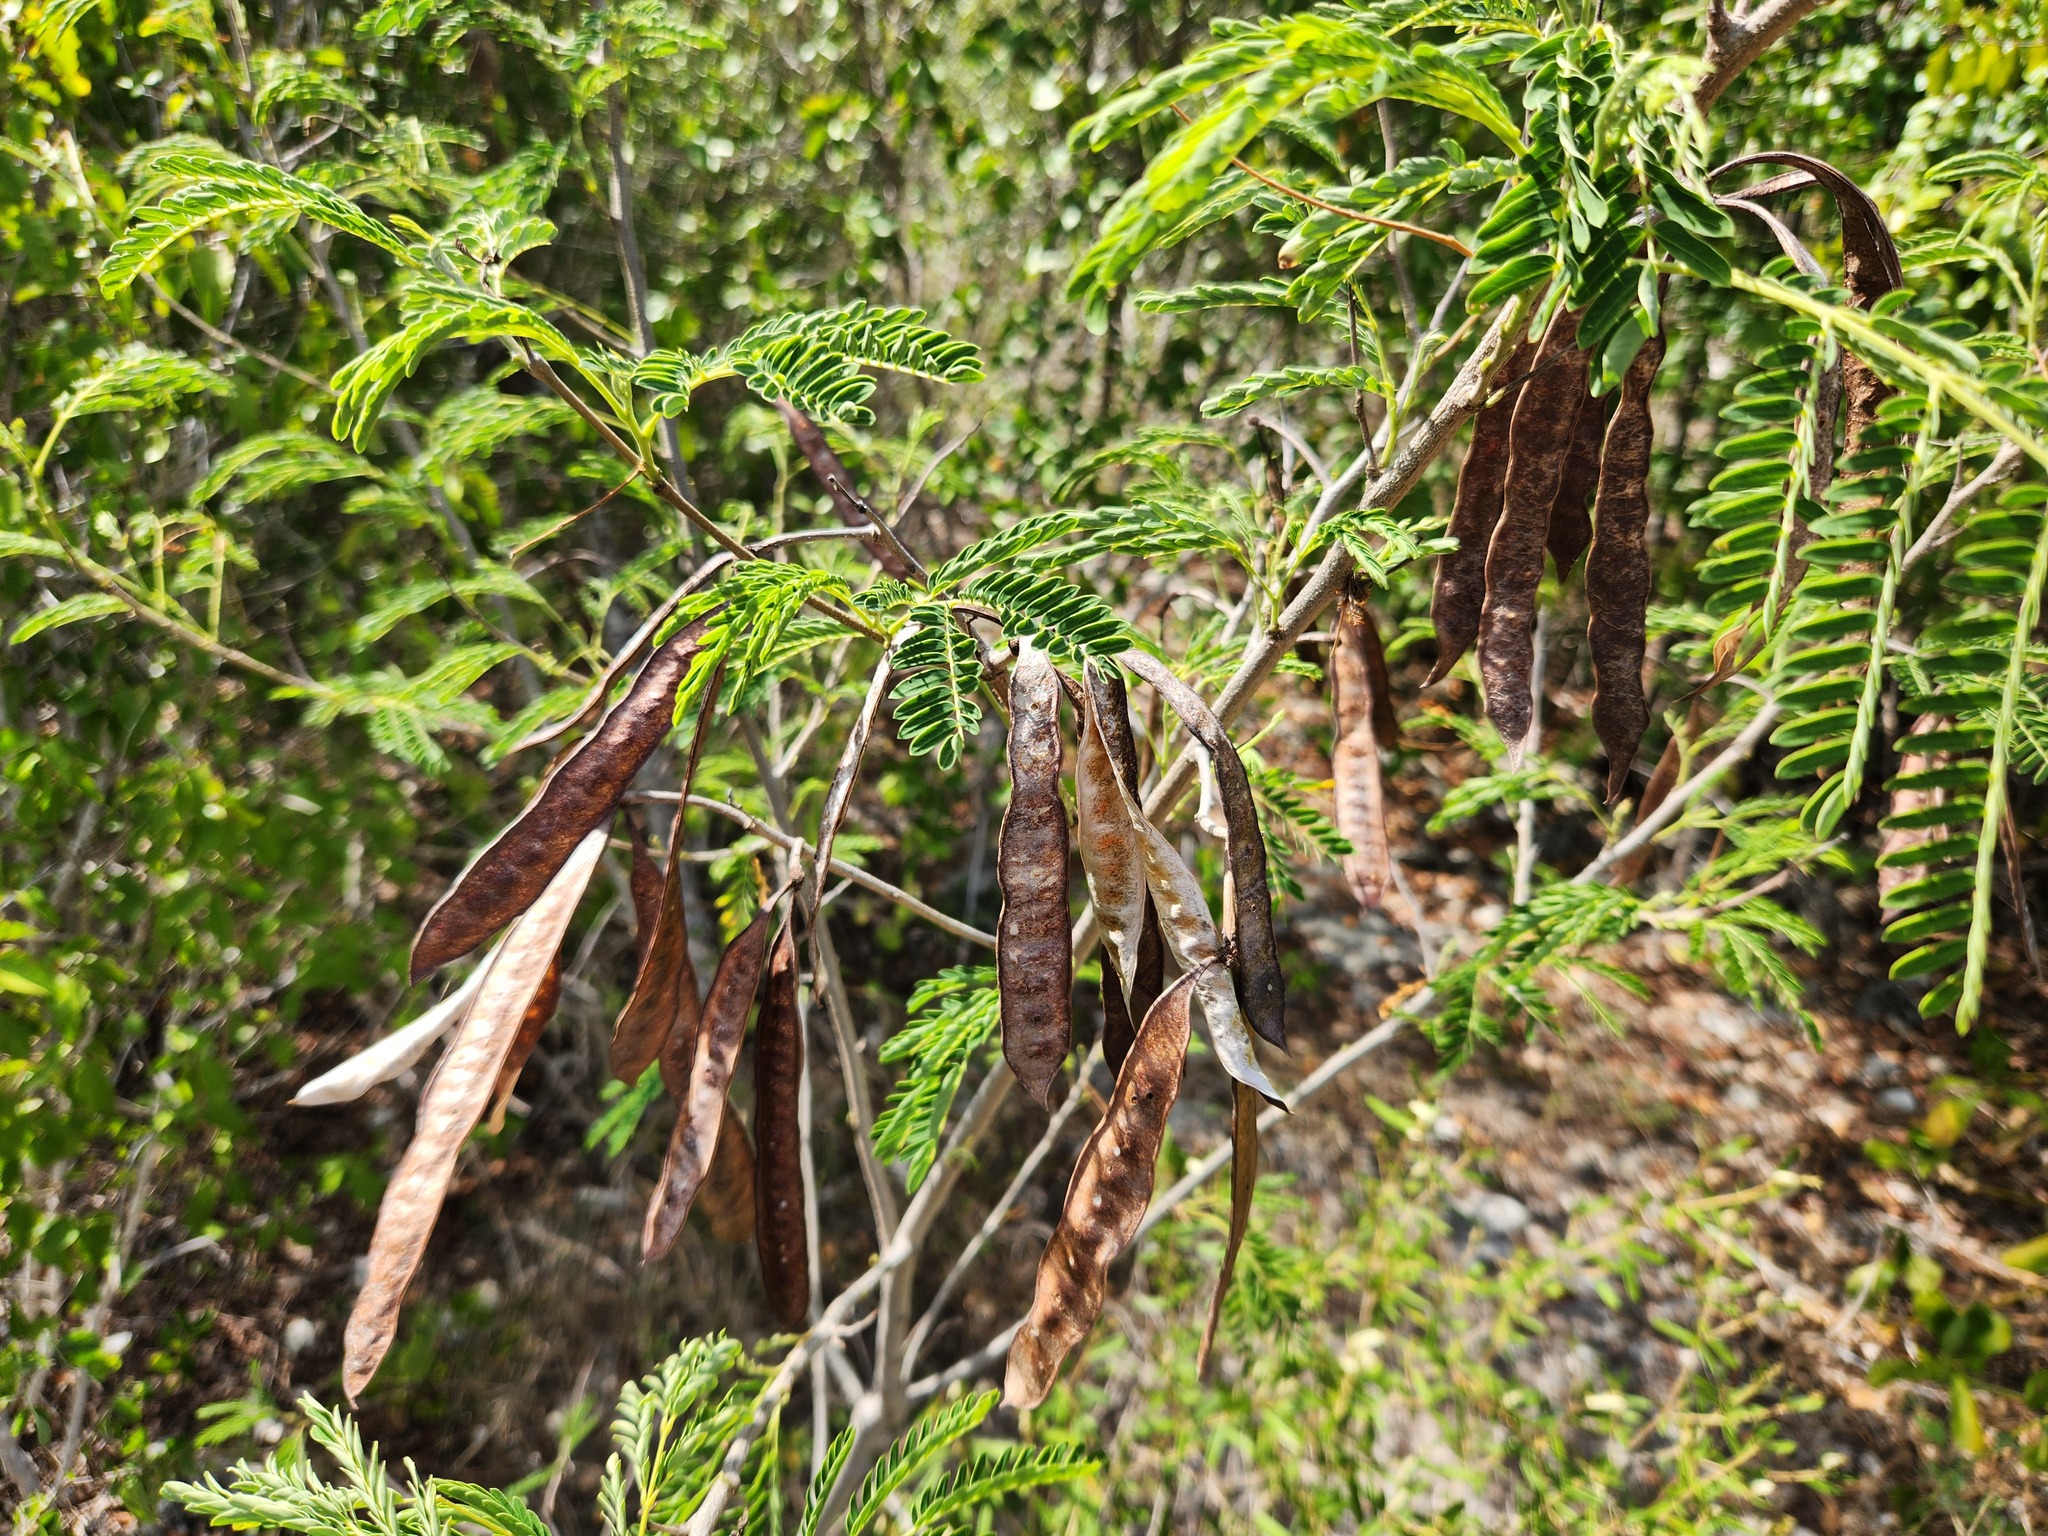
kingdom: Plantae
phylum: Tracheophyta
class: Magnoliopsida
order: Fabales
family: Fabaceae
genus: Leucaena
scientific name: Leucaena leucocephala
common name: White leadtree
